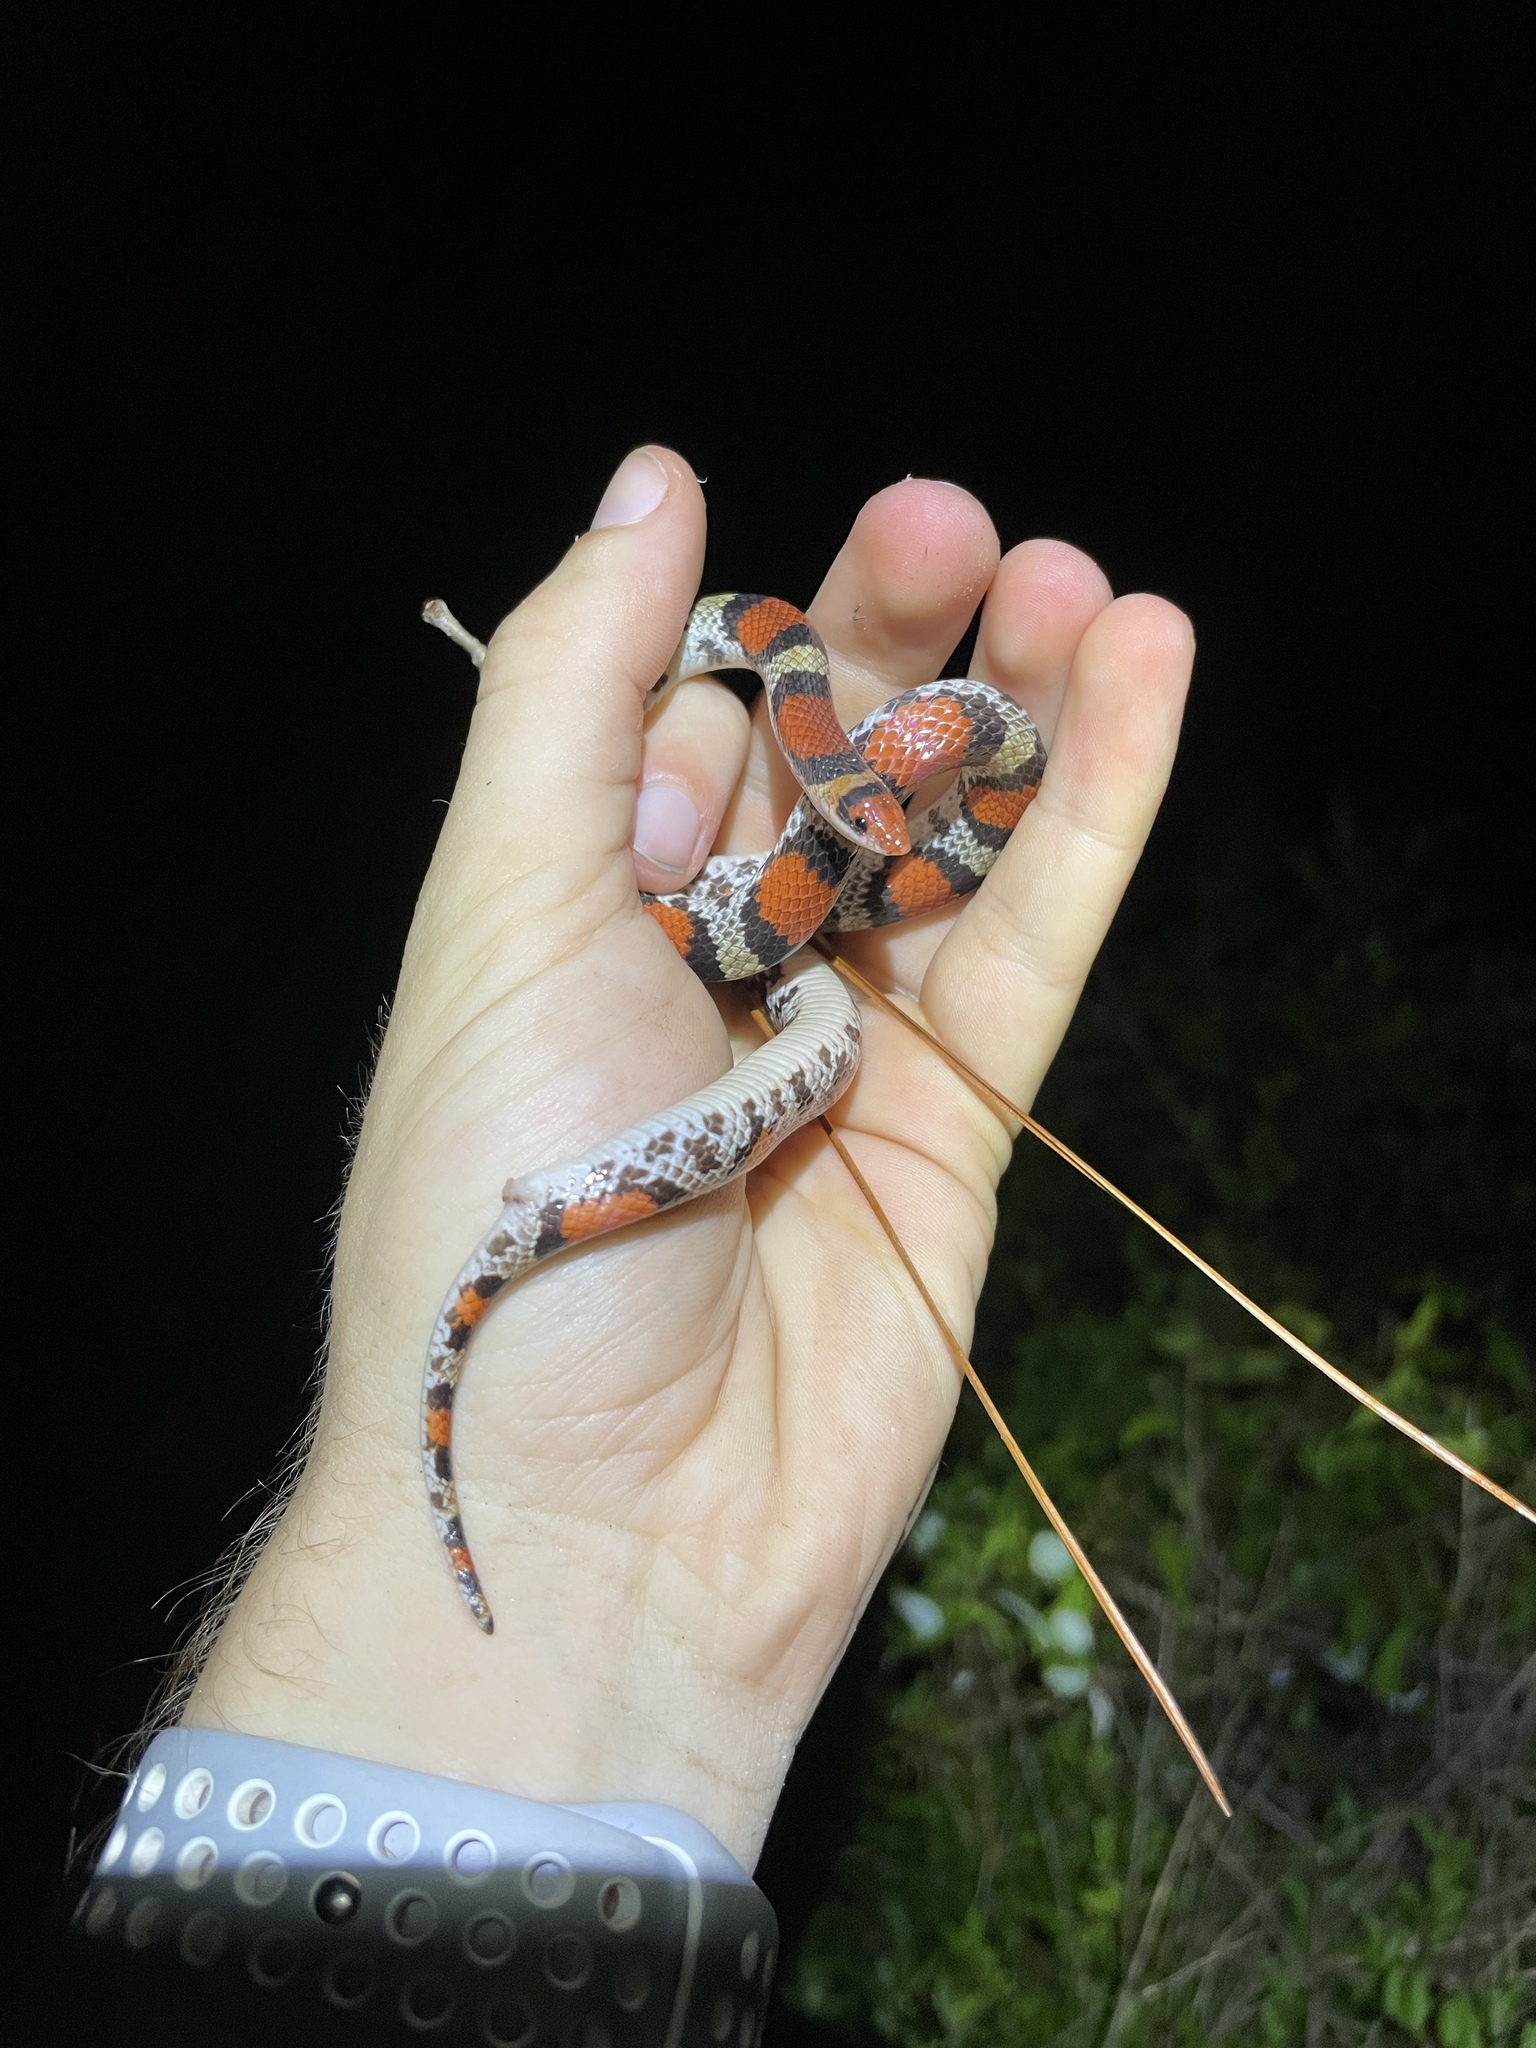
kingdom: Animalia
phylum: Chordata
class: Squamata
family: Colubridae
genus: Cemophora
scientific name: Cemophora coccinea
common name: Scarlet snake
